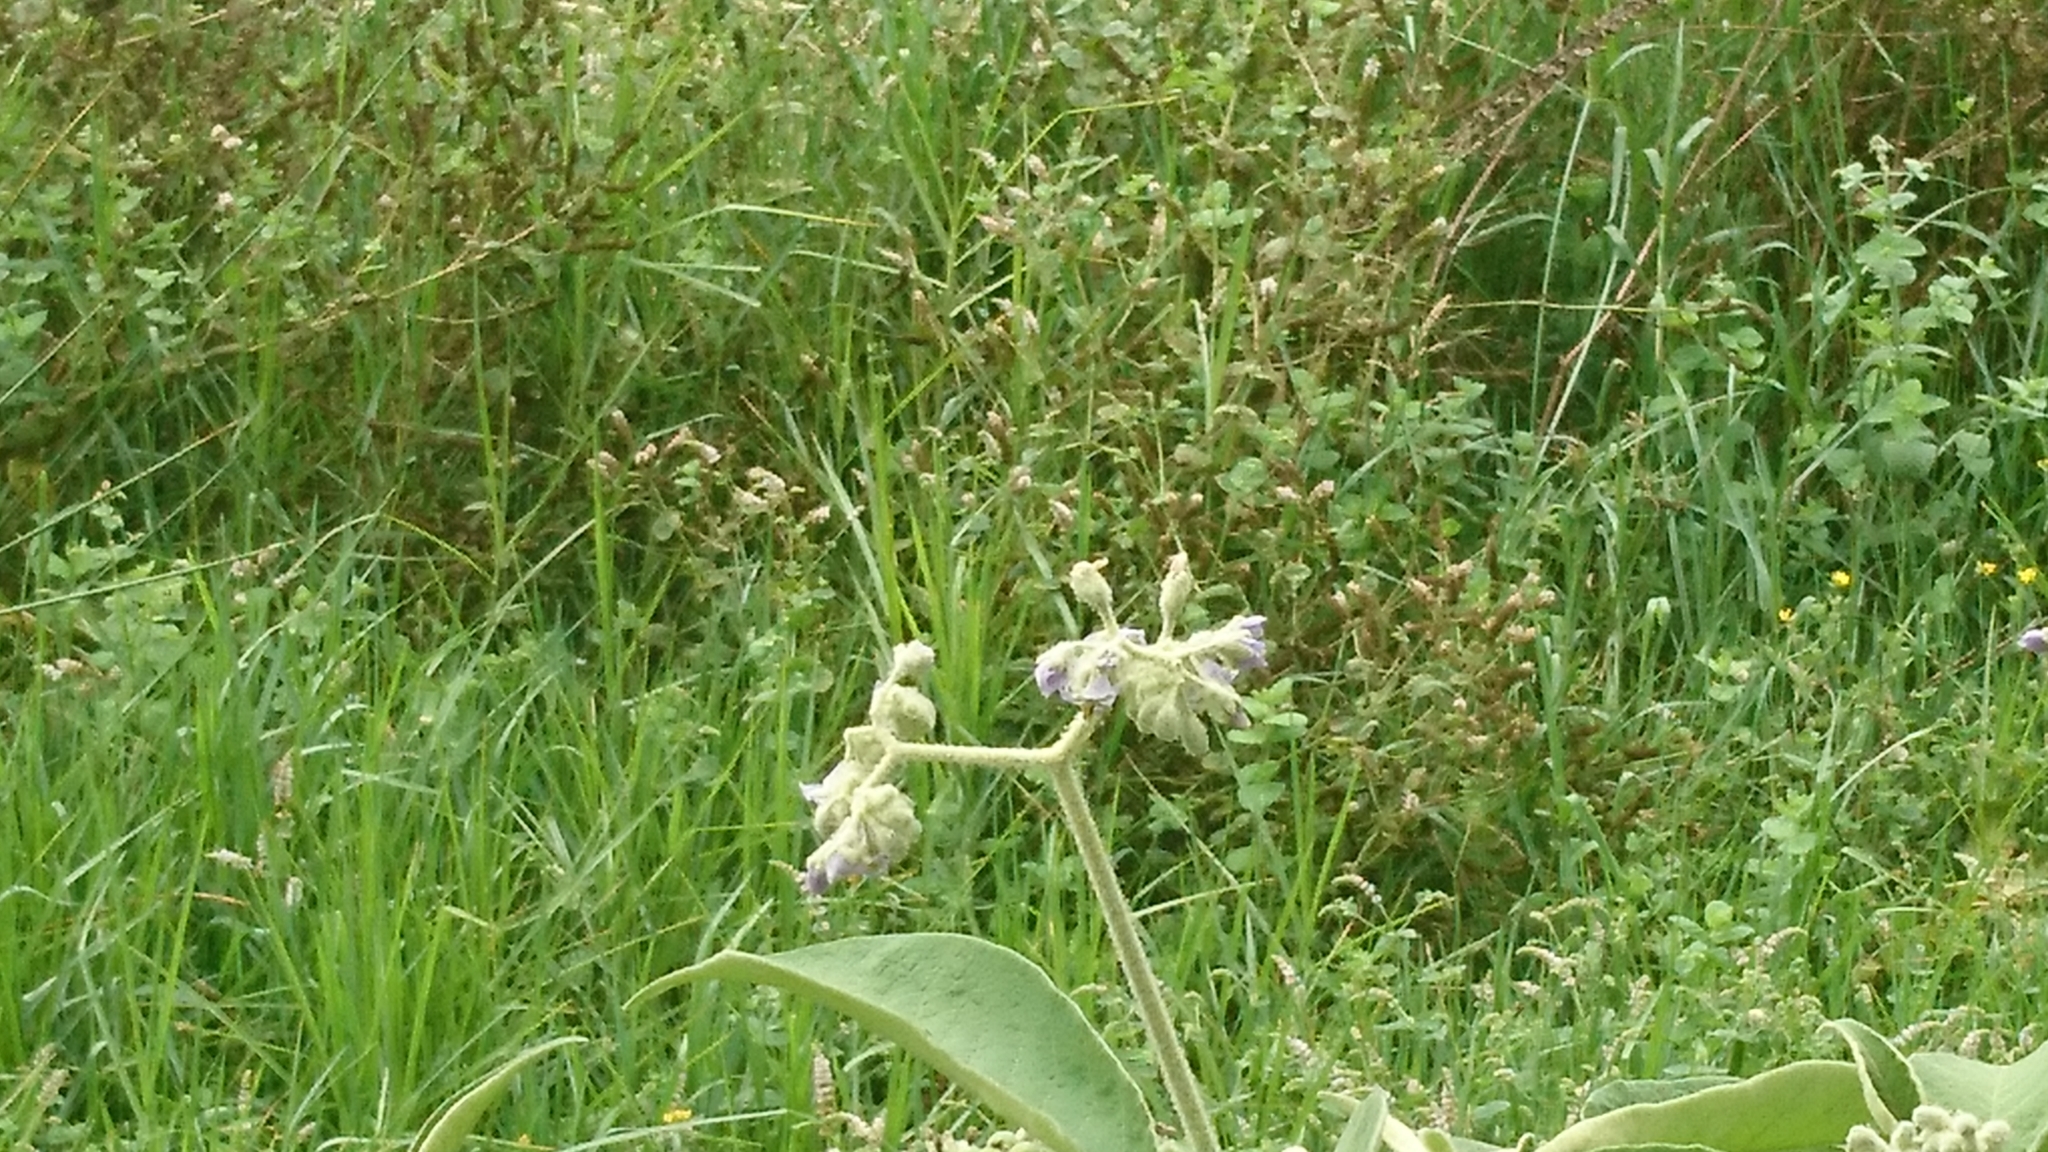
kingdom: Plantae
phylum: Tracheophyta
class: Magnoliopsida
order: Solanales
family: Solanaceae
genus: Solanum
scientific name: Solanum mauritianum
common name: Earleaf nightshade
